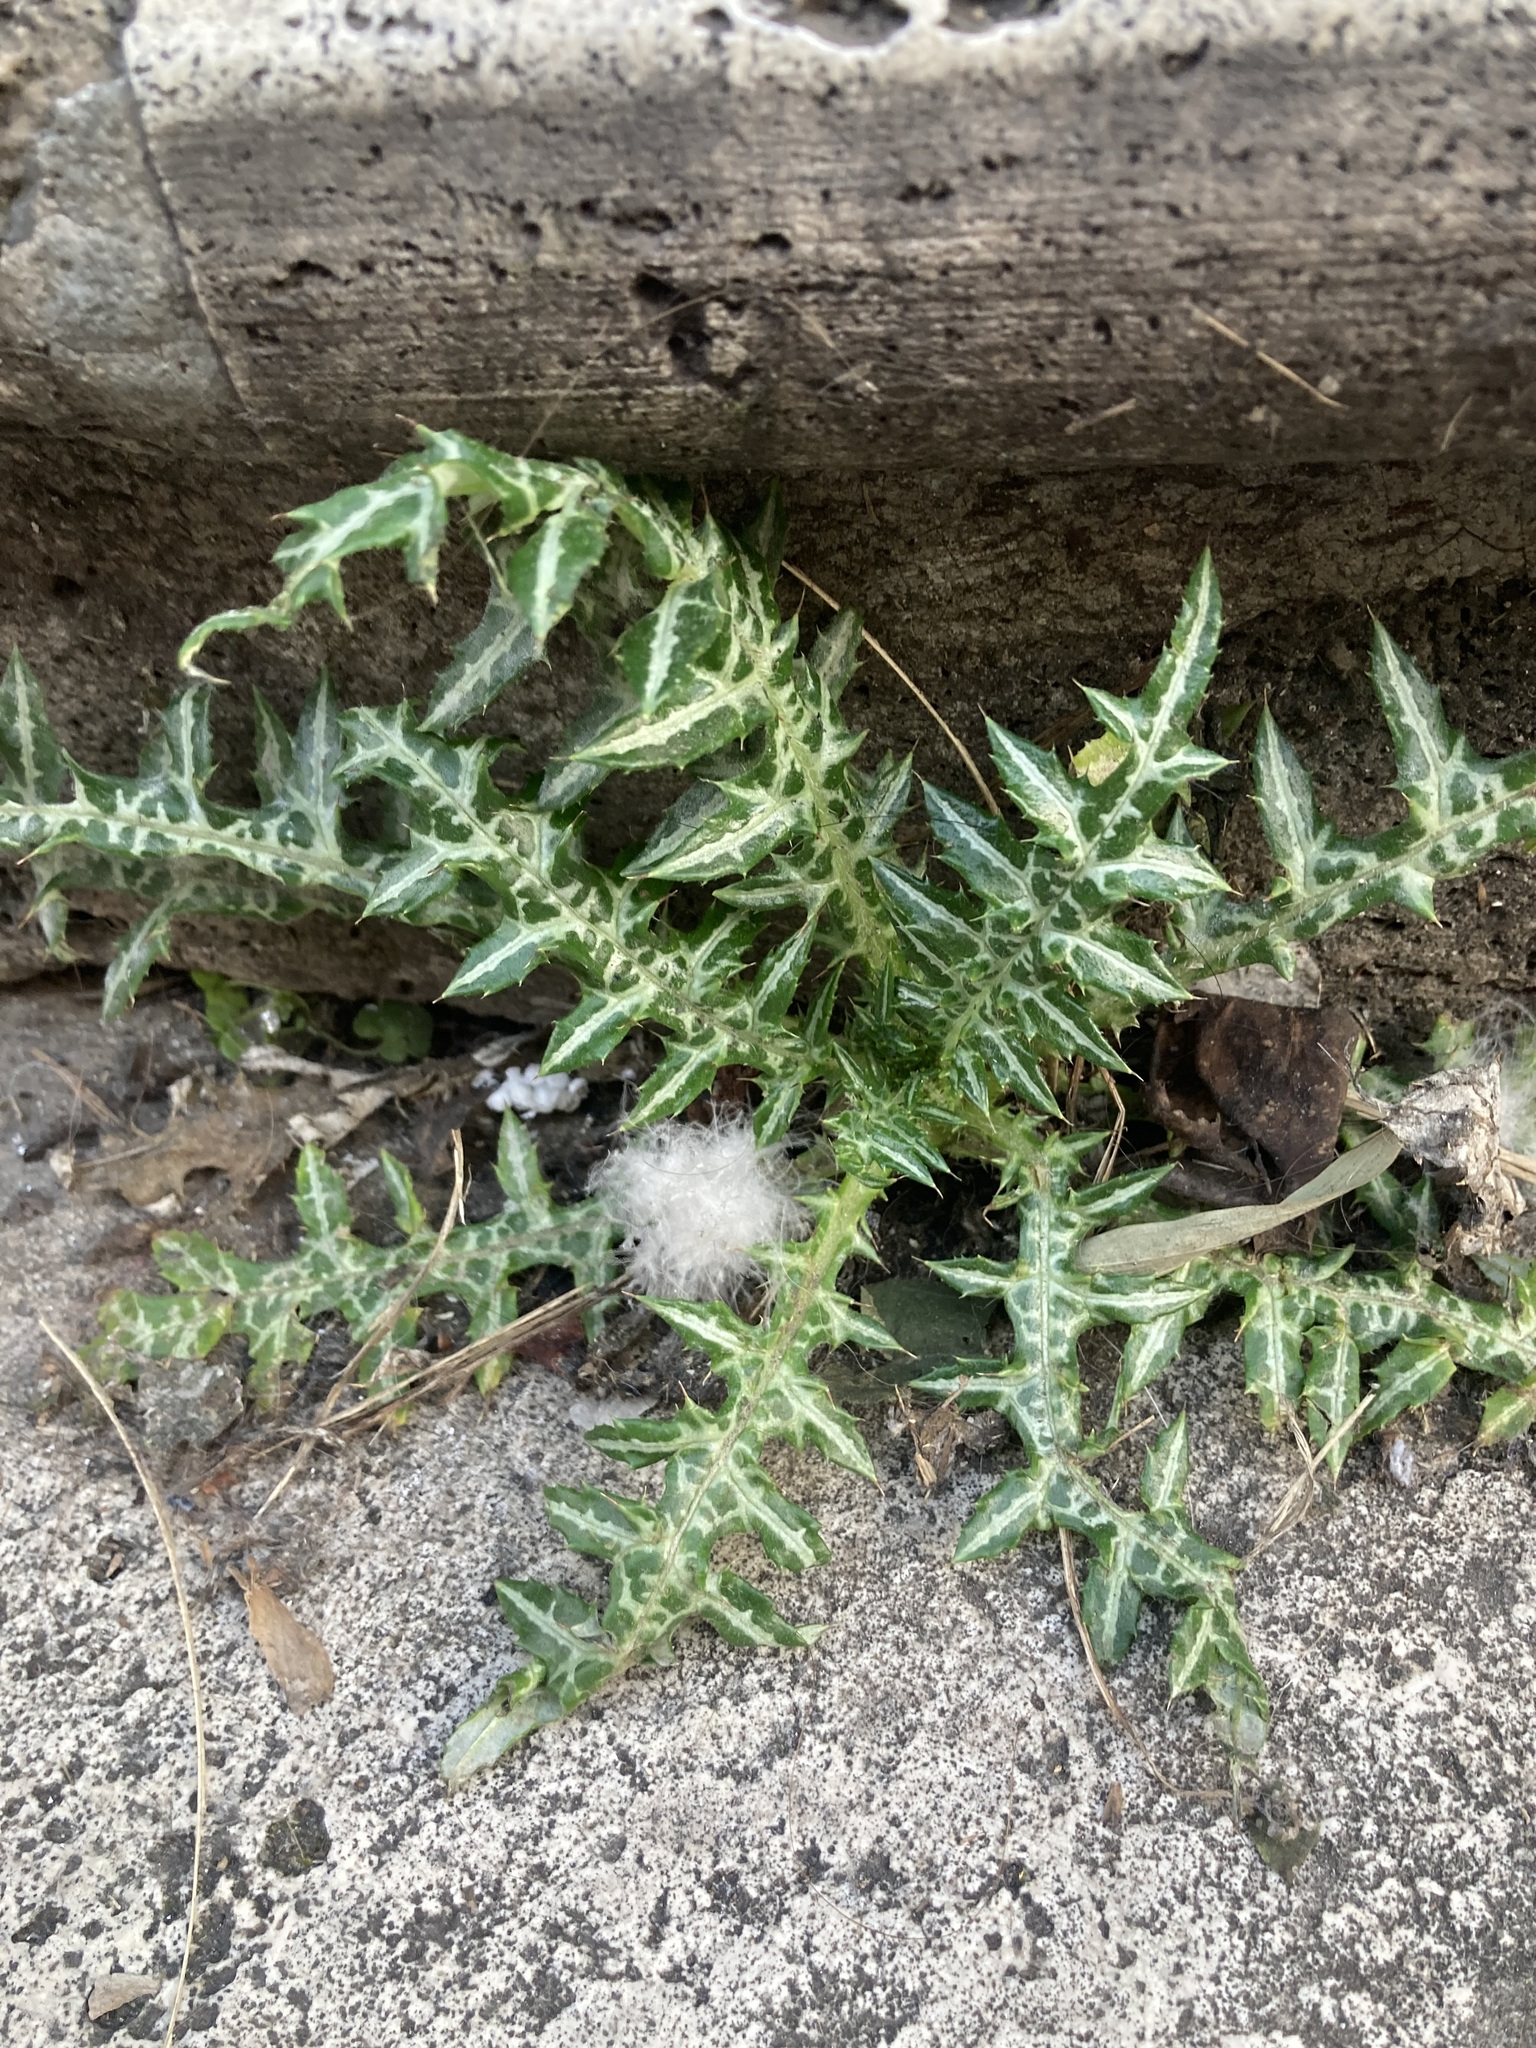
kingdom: Plantae
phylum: Tracheophyta
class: Magnoliopsida
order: Asterales
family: Asteraceae
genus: Galactites
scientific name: Galactites tomentosa
